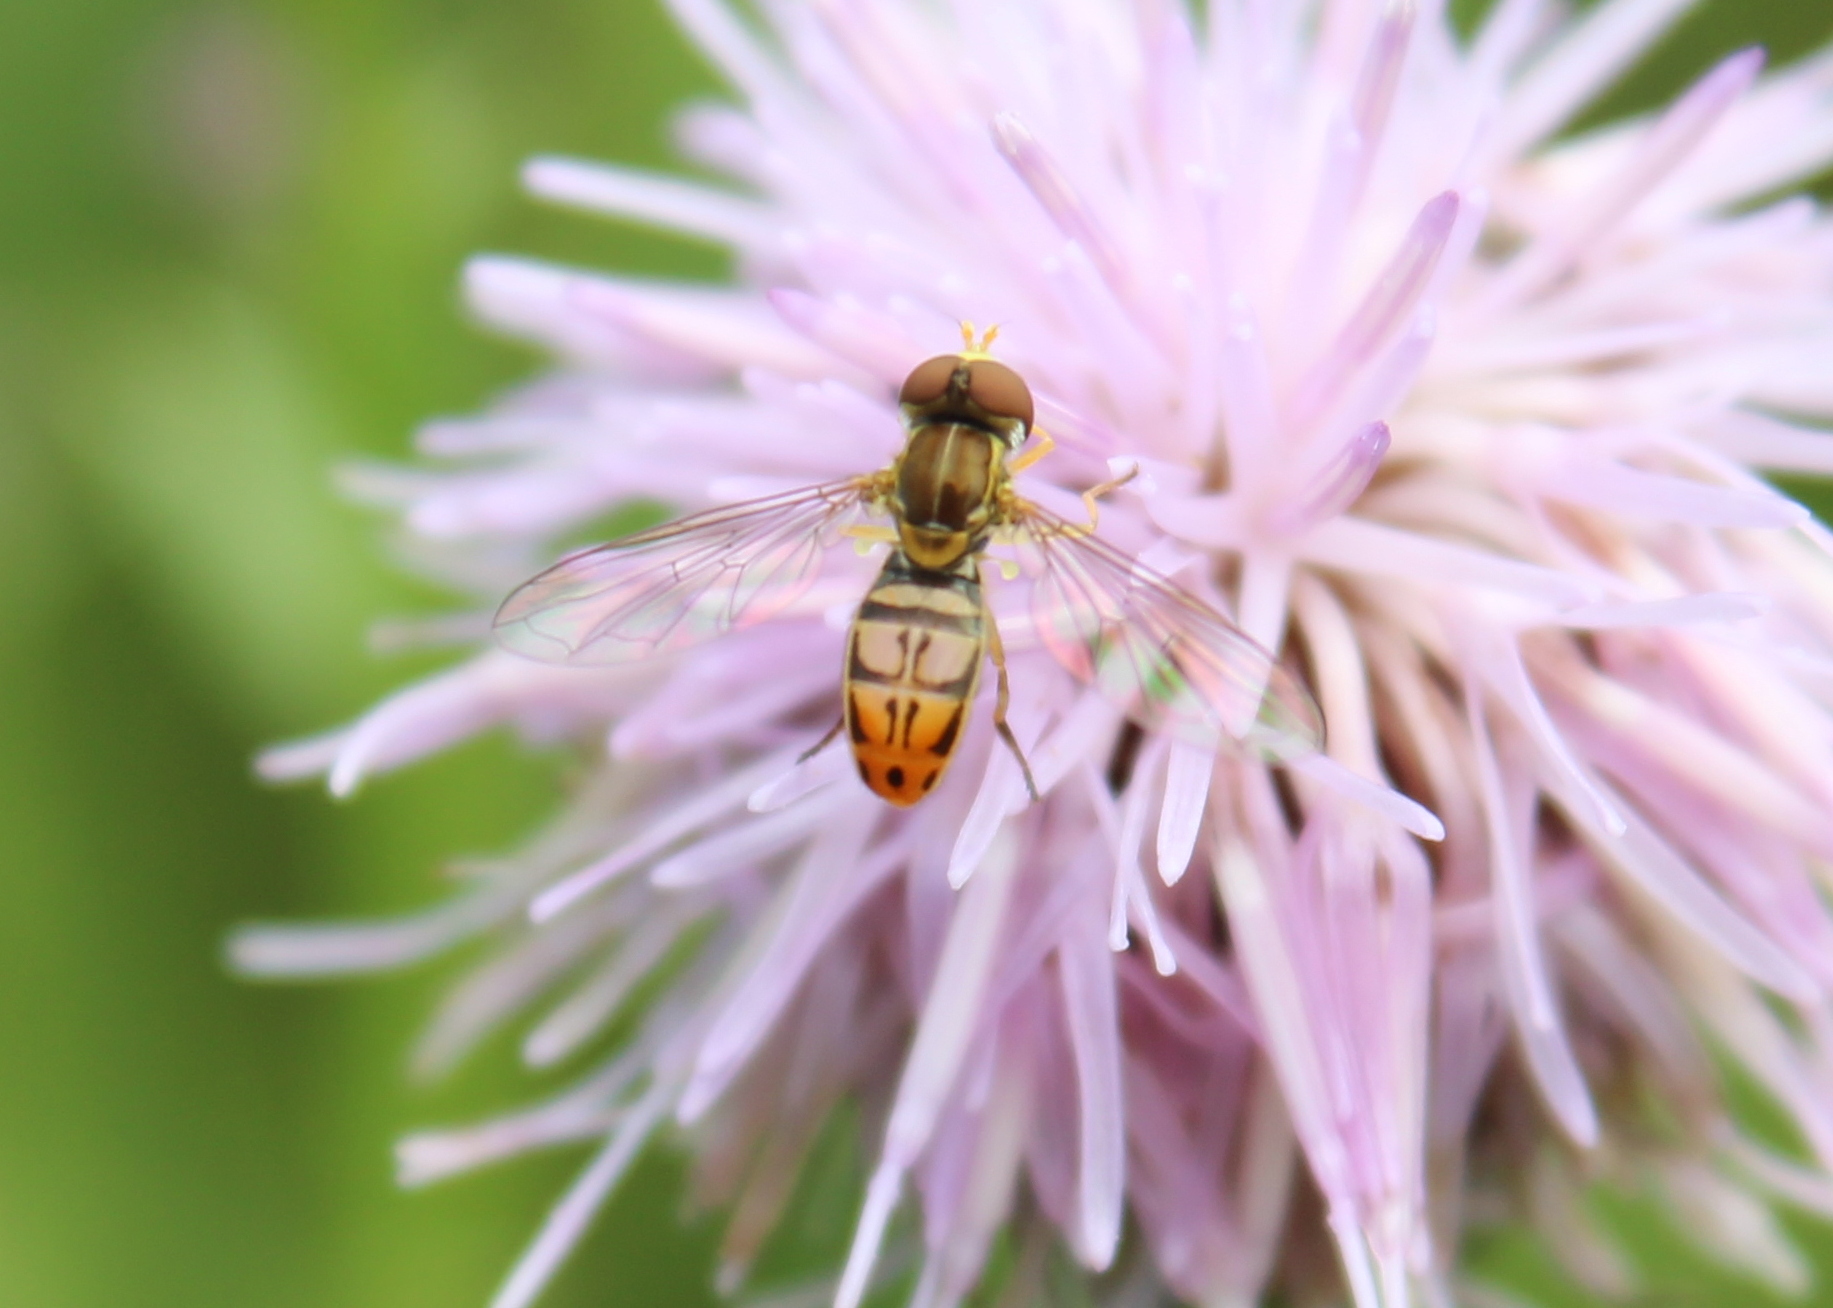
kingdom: Animalia
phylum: Arthropoda
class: Insecta
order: Diptera
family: Syrphidae
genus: Toxomerus
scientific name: Toxomerus marginatus
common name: Syrphid fly
